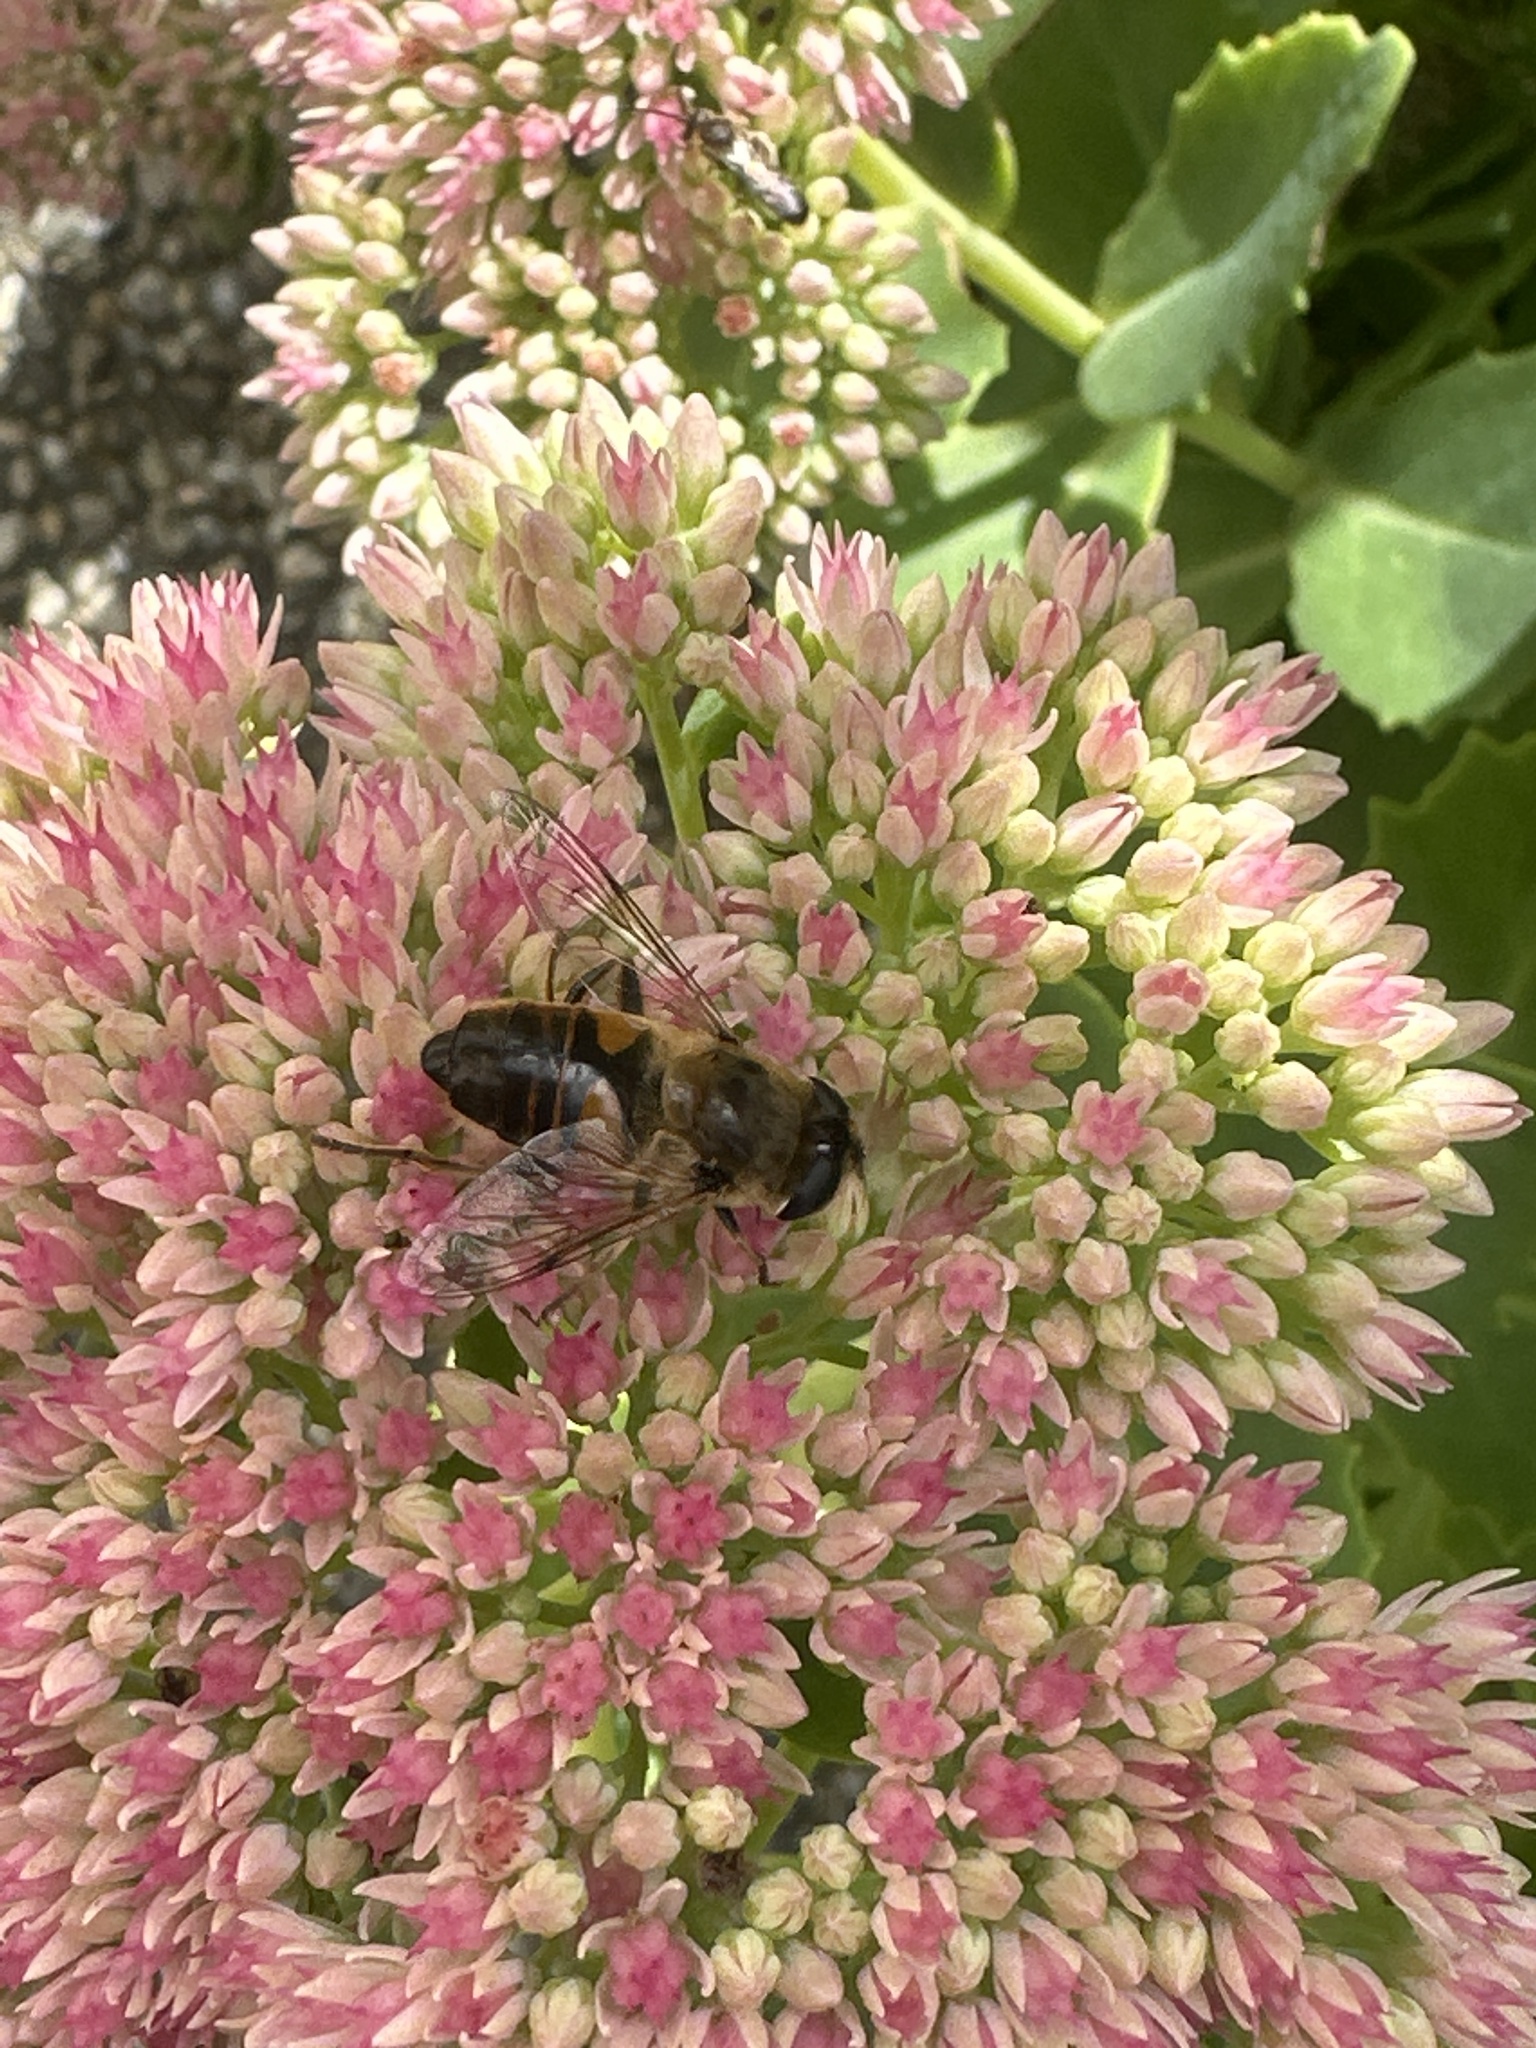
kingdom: Animalia
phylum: Arthropoda
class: Insecta
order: Diptera
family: Syrphidae
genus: Eristalis
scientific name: Eristalis tenax
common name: Drone fly
